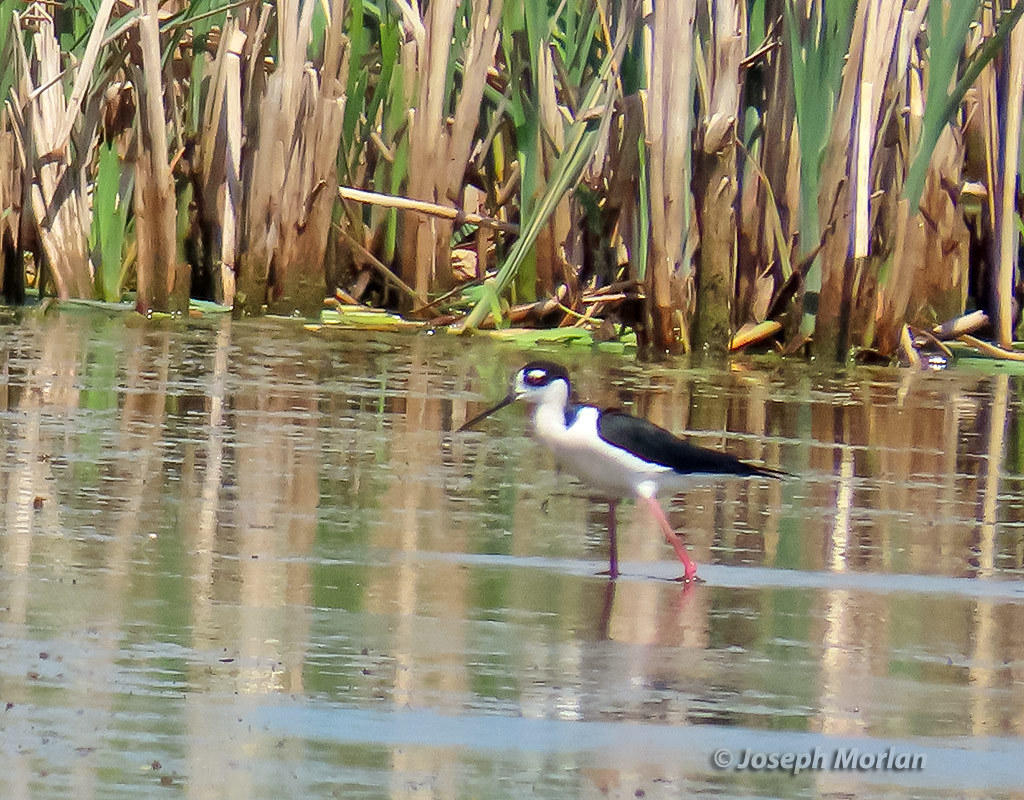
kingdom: Animalia
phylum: Chordata
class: Aves
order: Charadriiformes
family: Recurvirostridae
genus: Himantopus
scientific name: Himantopus mexicanus
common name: Black-necked stilt
